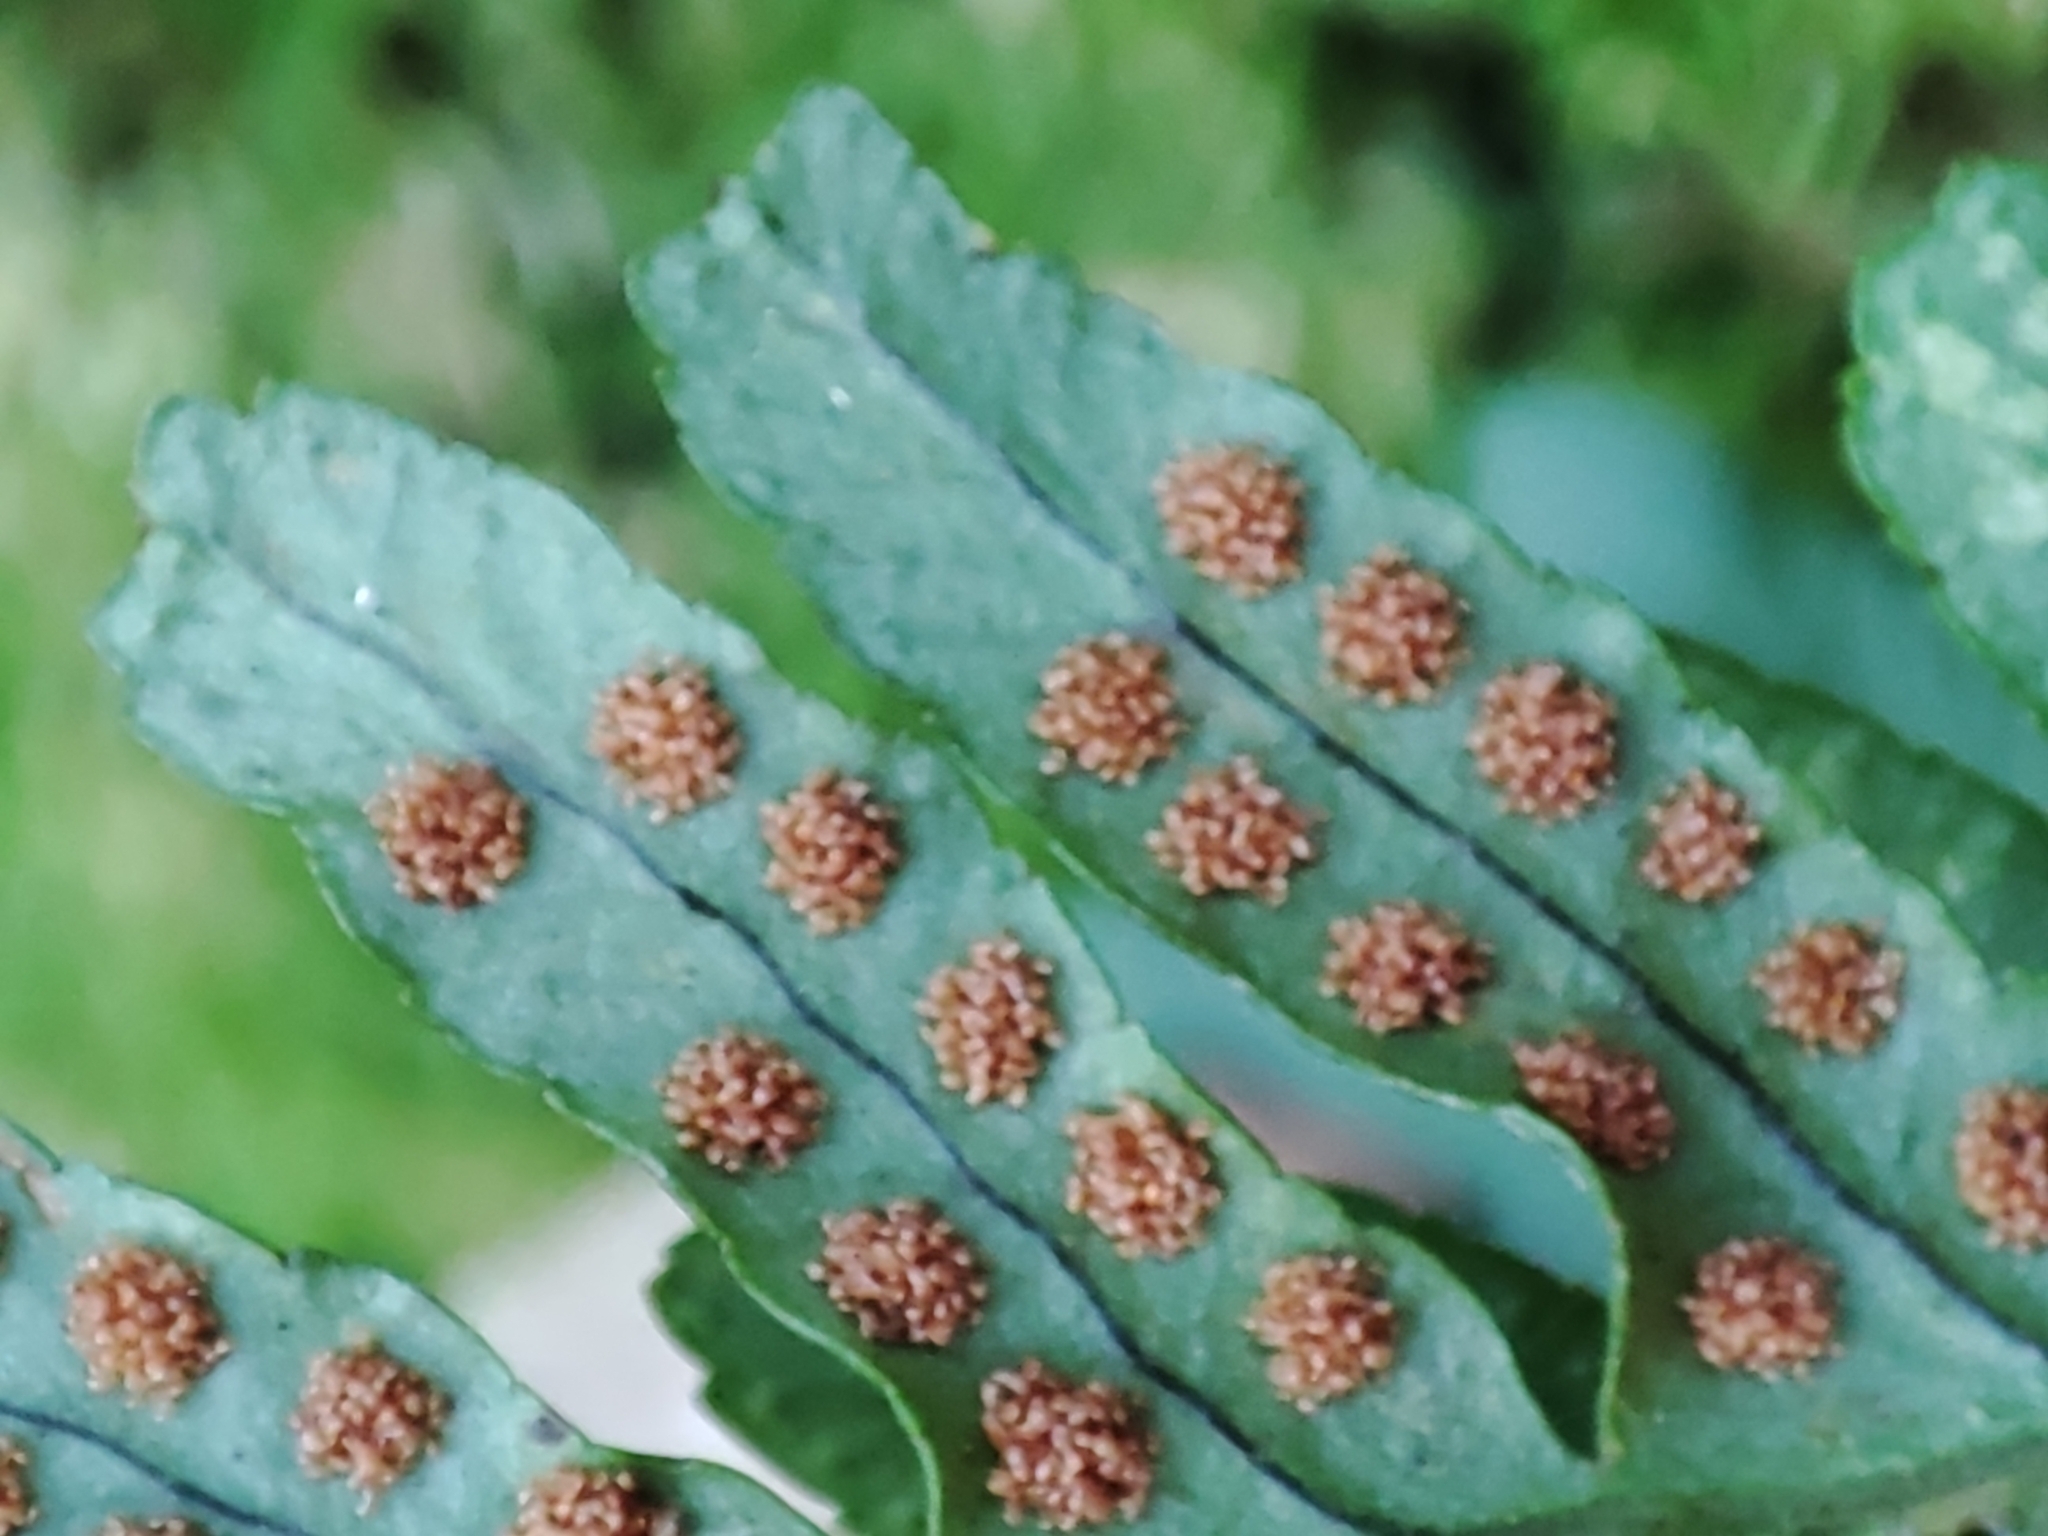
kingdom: Plantae
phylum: Tracheophyta
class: Polypodiopsida
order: Polypodiales
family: Polypodiaceae
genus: Polypodium
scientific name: Polypodium vulgare
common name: Common polypody
